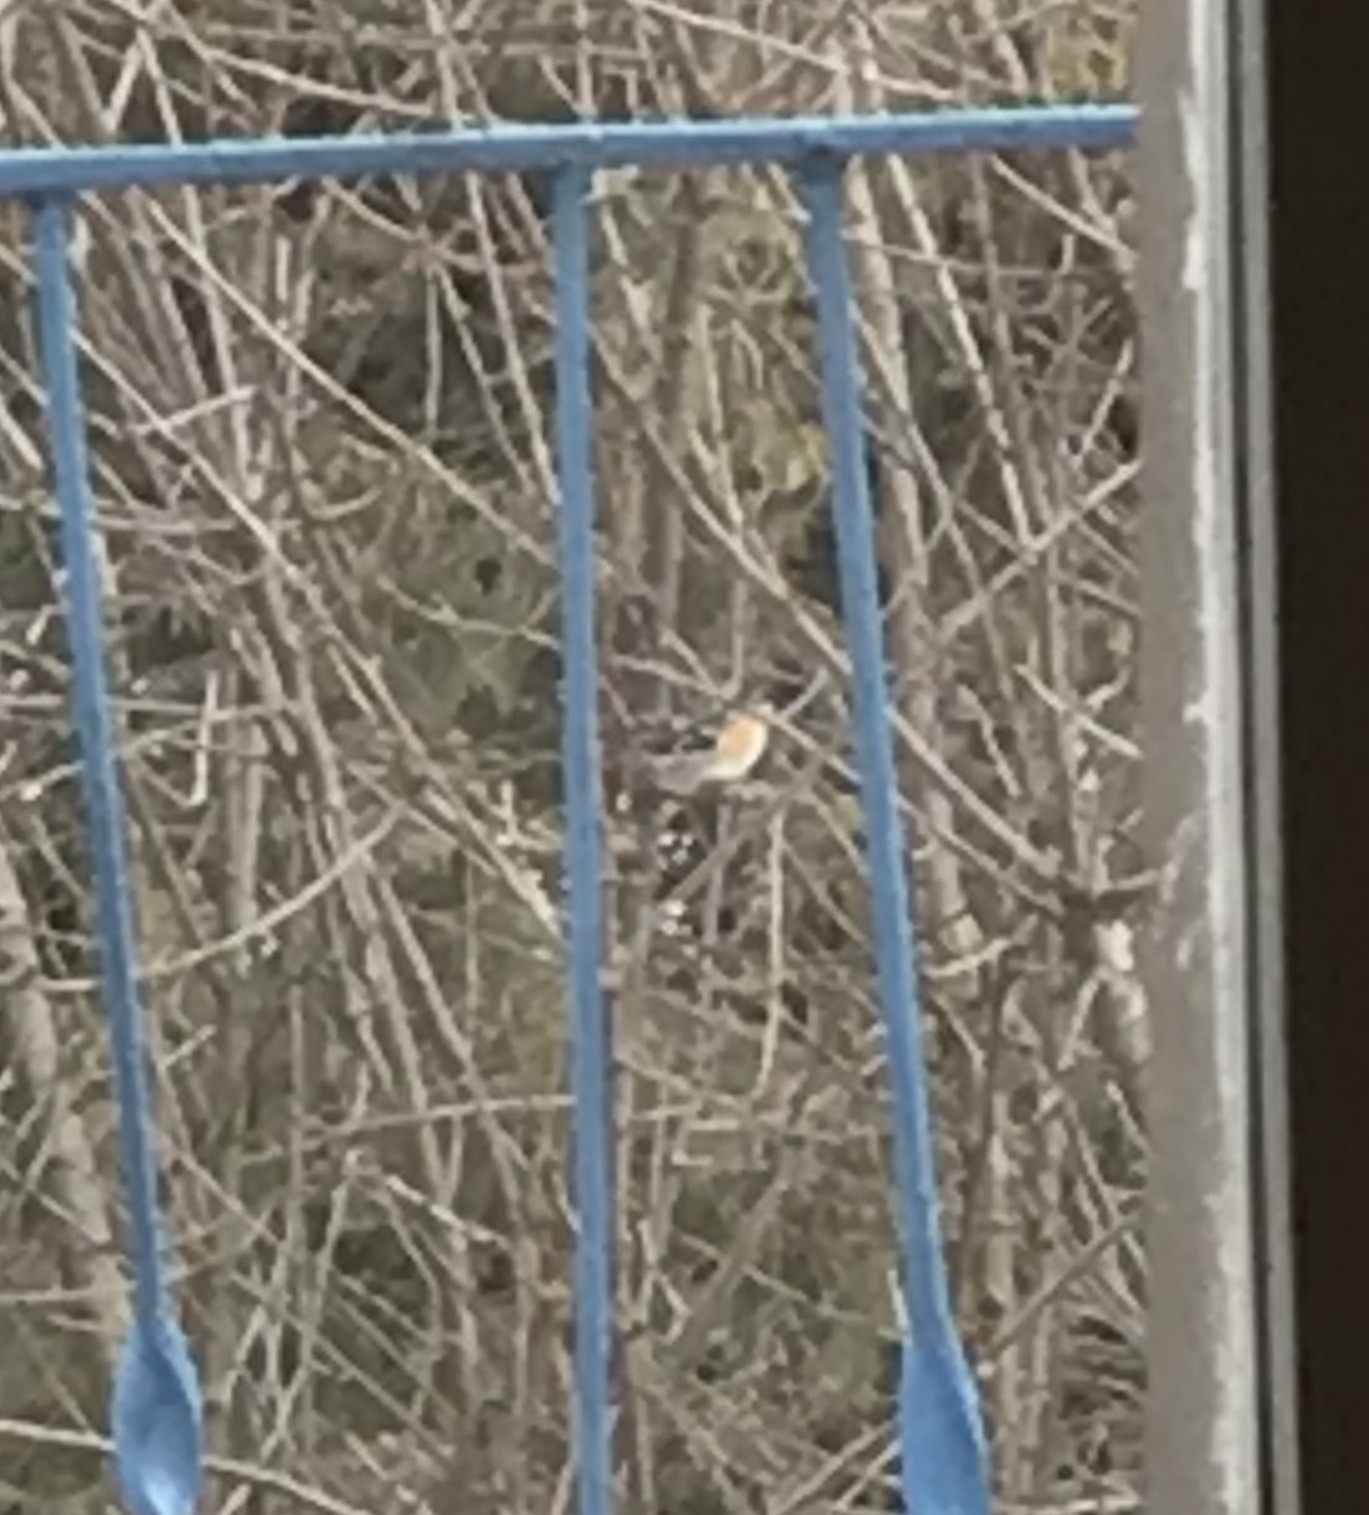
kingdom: Animalia
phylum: Chordata
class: Aves
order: Passeriformes
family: Fringillidae
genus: Fringilla
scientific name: Fringilla montifringilla
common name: Brambling
